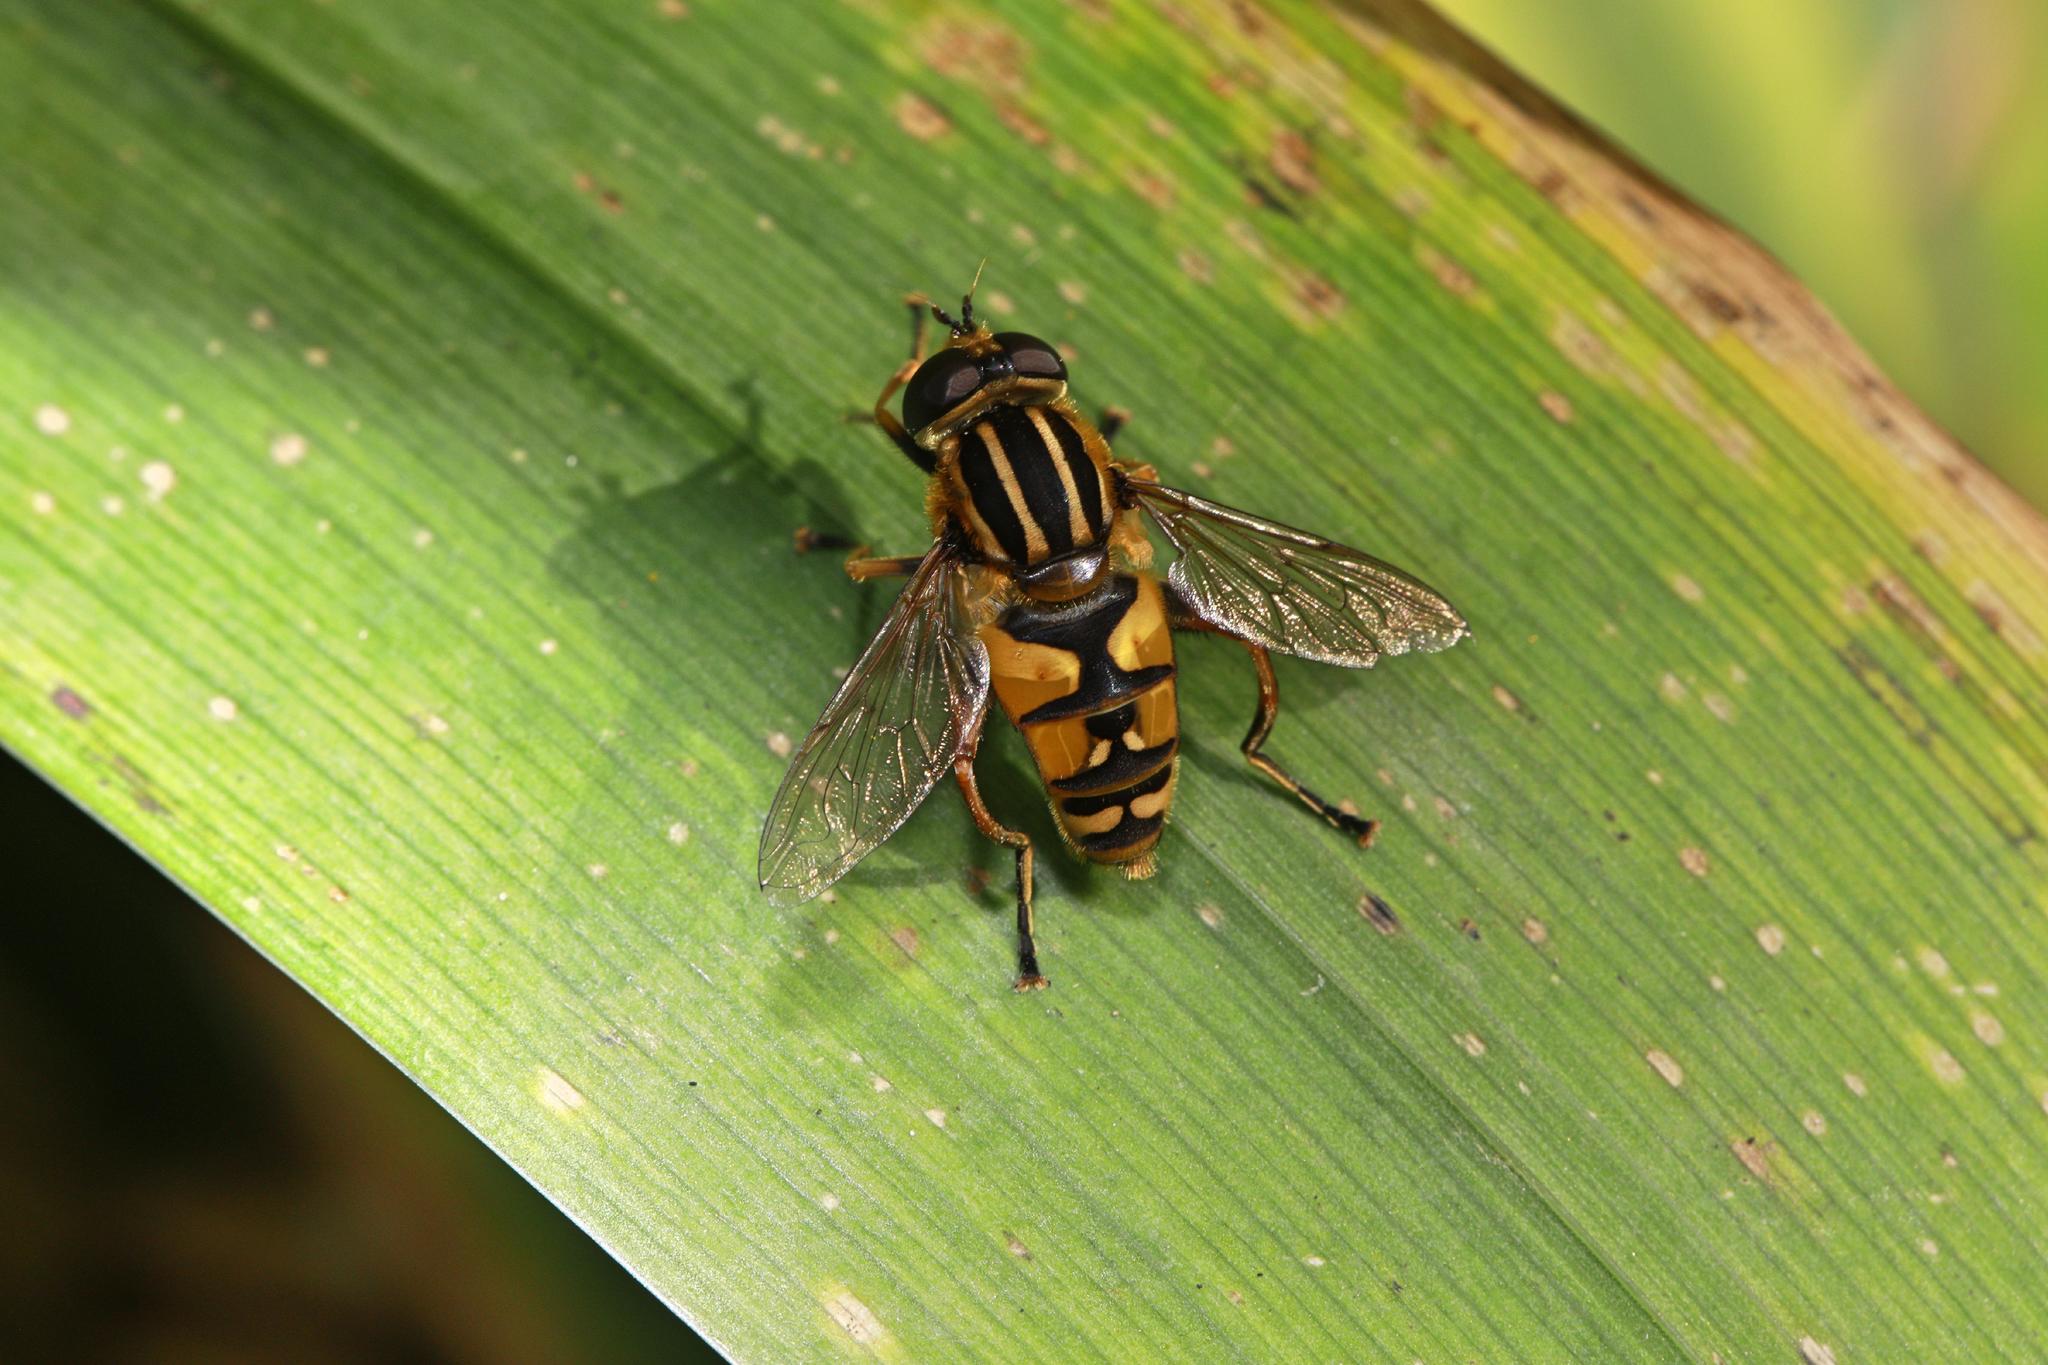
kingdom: Animalia
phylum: Arthropoda
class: Insecta
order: Diptera
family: Syrphidae
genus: Helophilus
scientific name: Helophilus pendulus
